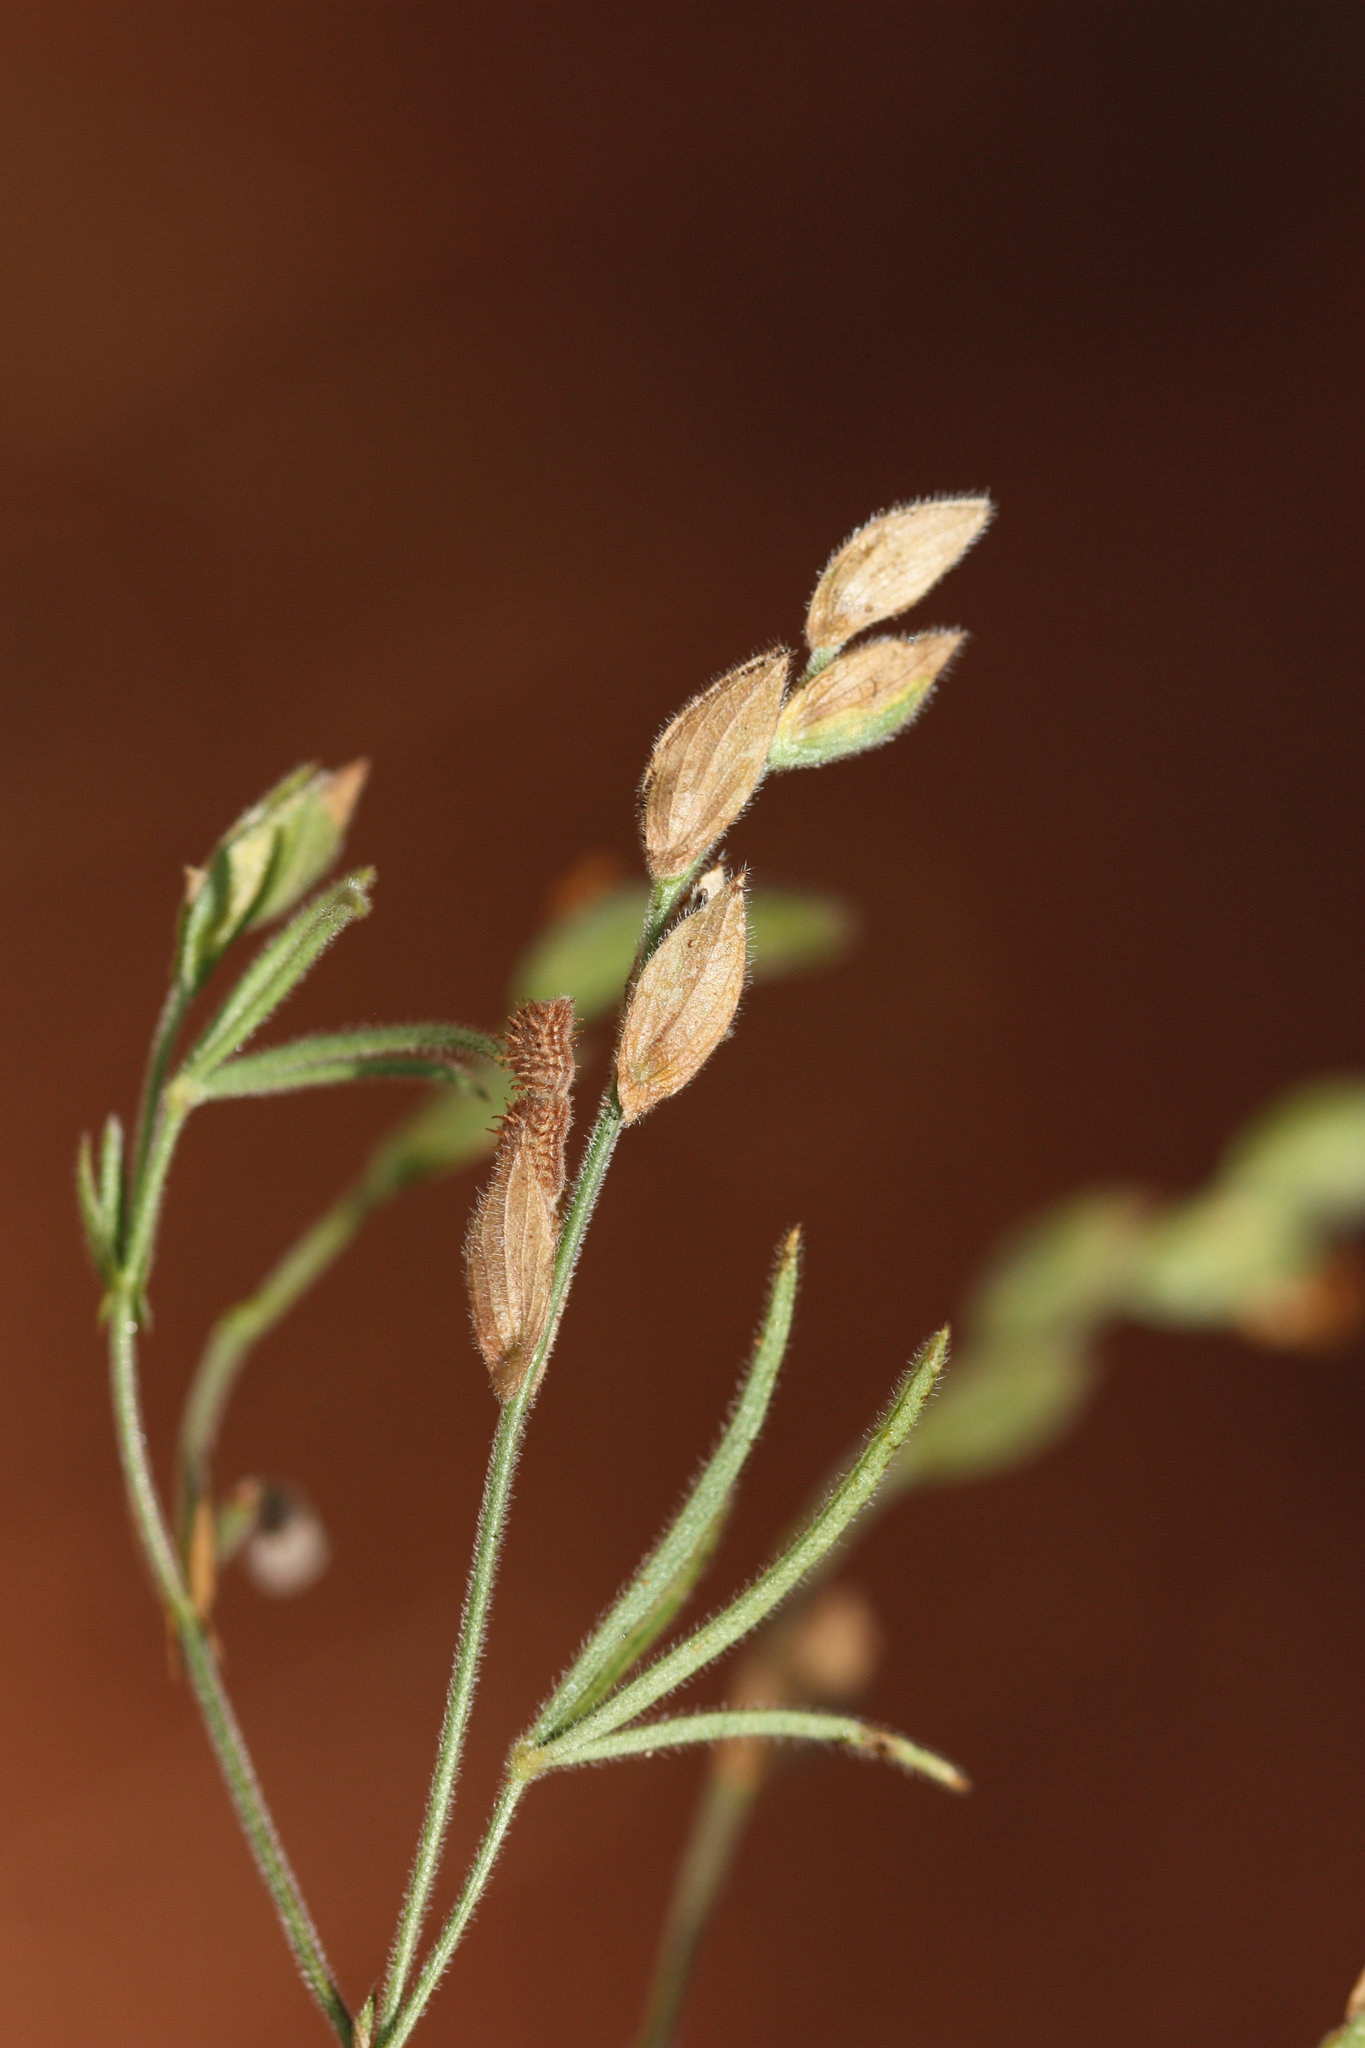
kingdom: Plantae
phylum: Tracheophyta
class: Magnoliopsida
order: Fabales
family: Fabaceae
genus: Zornia
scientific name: Zornia milneana
